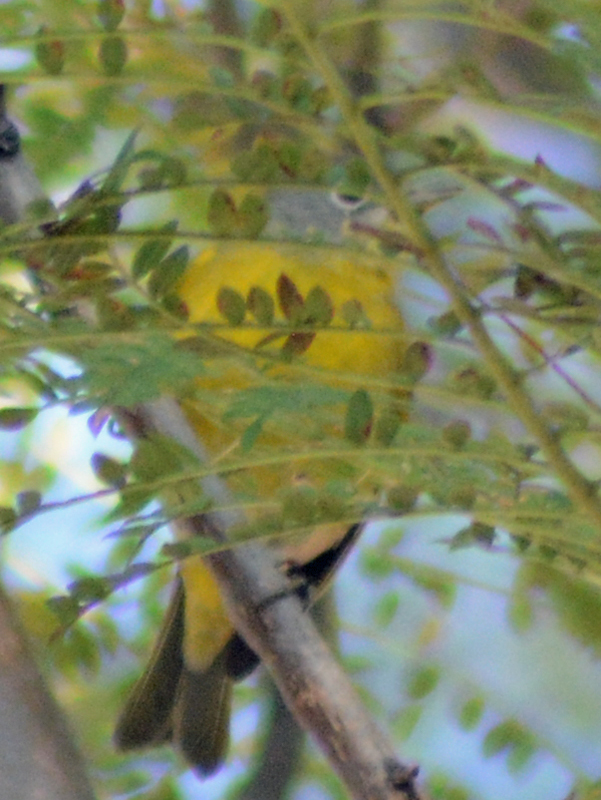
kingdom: Animalia
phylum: Chordata
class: Aves
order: Passeriformes
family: Parulidae
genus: Leiothlypis
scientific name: Leiothlypis ruficapilla
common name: Nashville warbler
